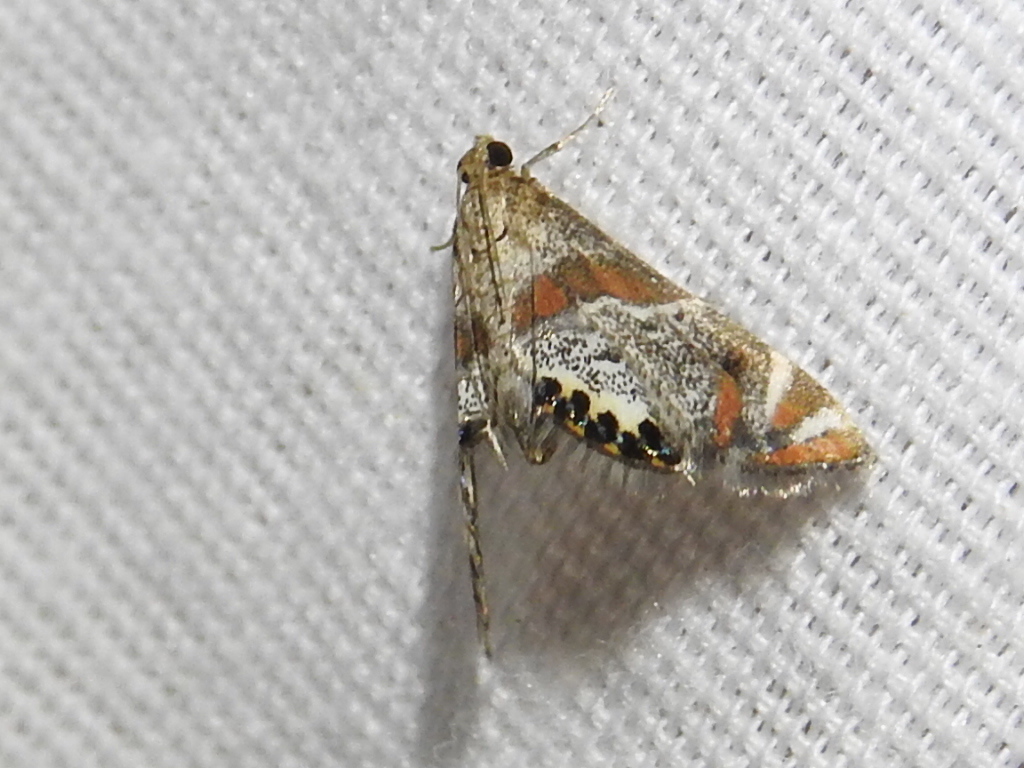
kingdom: Animalia
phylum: Arthropoda
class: Insecta
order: Lepidoptera
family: Crambidae
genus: Petrophila
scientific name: Petrophila jaliscalis
